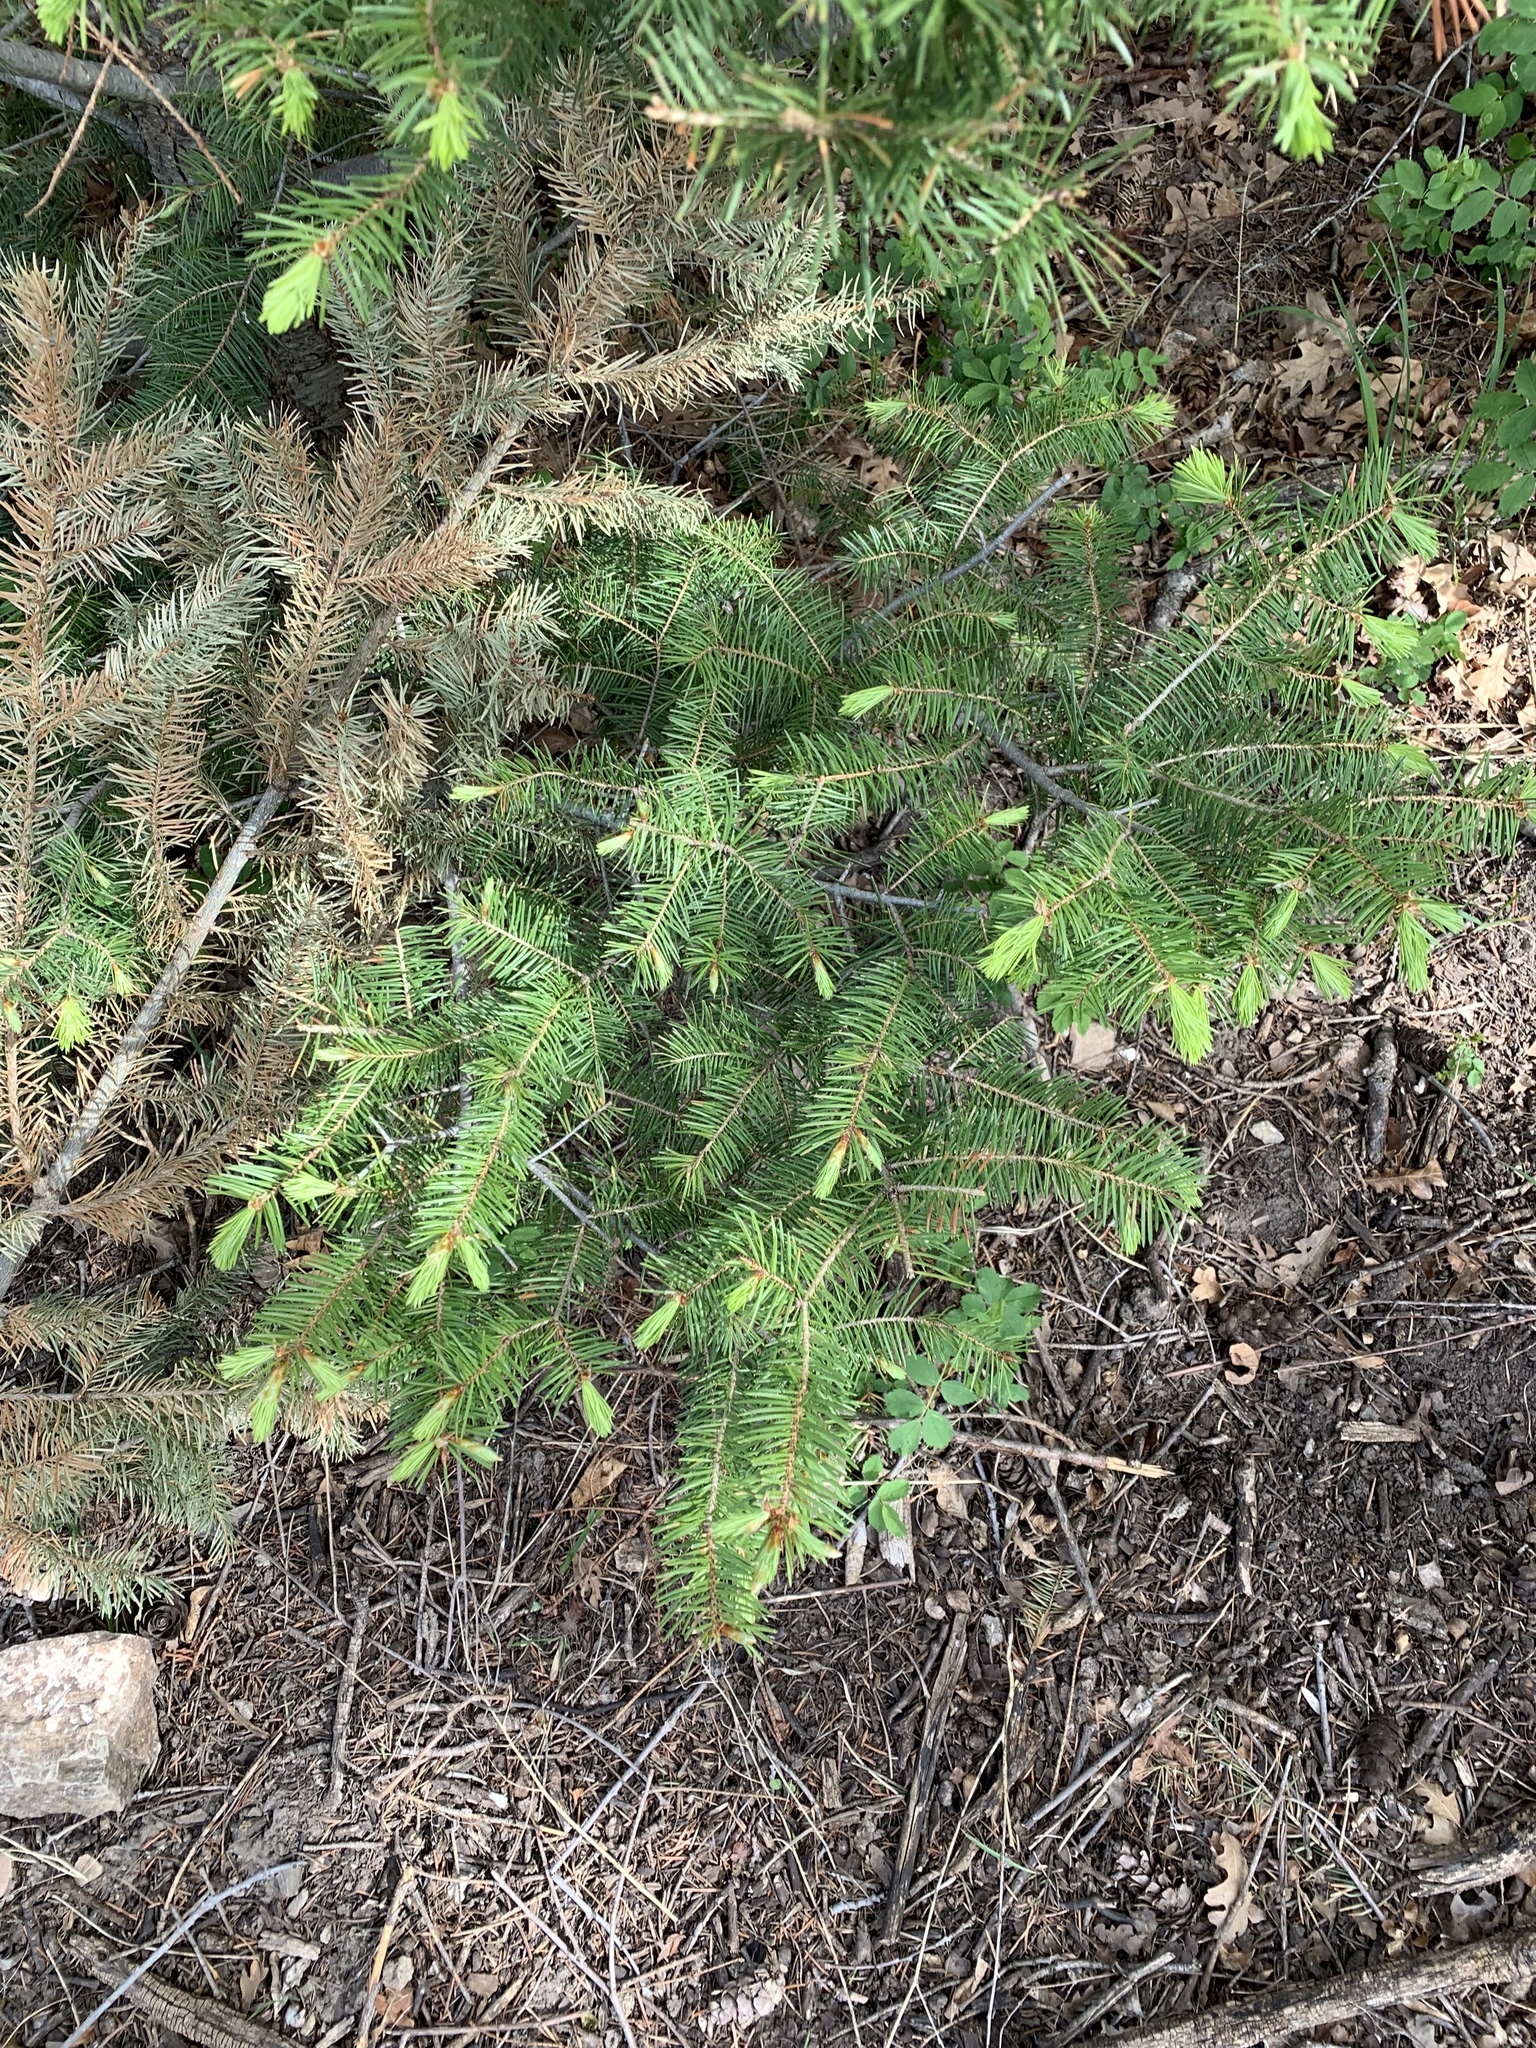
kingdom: Plantae
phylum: Tracheophyta
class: Pinopsida
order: Pinales
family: Pinaceae
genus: Pseudotsuga
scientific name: Pseudotsuga menziesii
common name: Douglas fir
